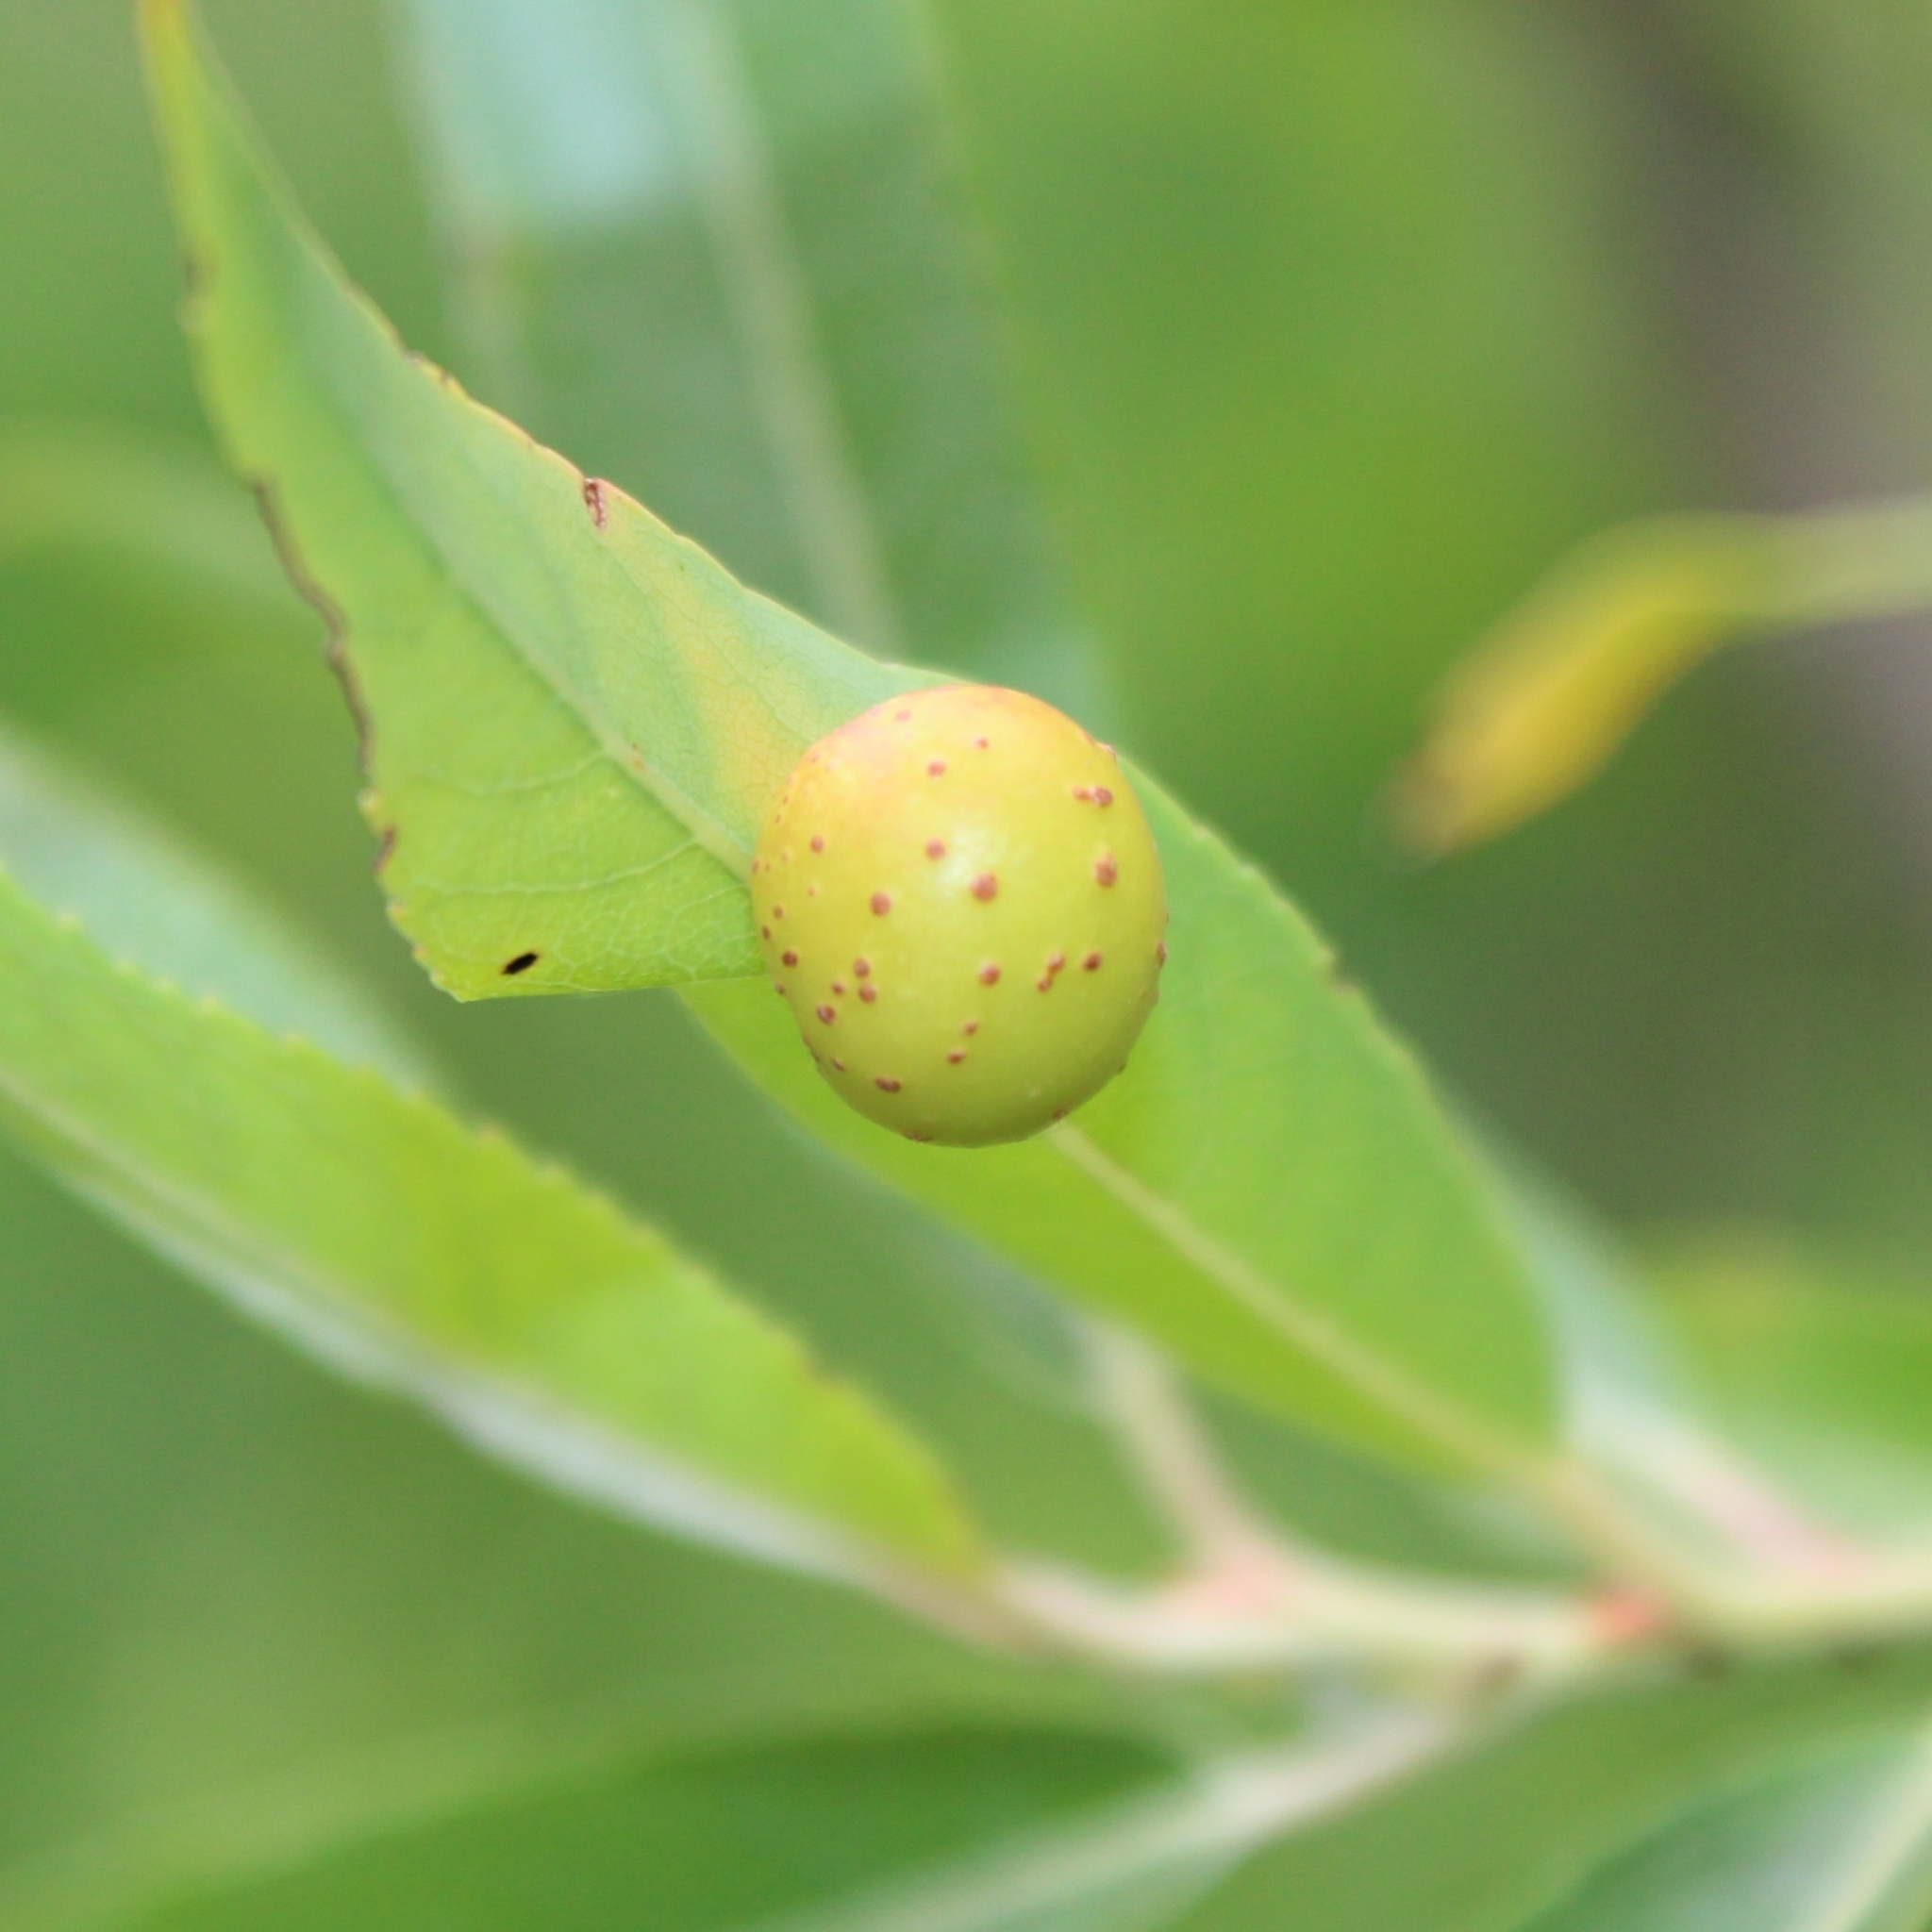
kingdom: Animalia
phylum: Arthropoda
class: Insecta
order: Hymenoptera
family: Tenthredinidae
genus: Euura
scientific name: Euura
